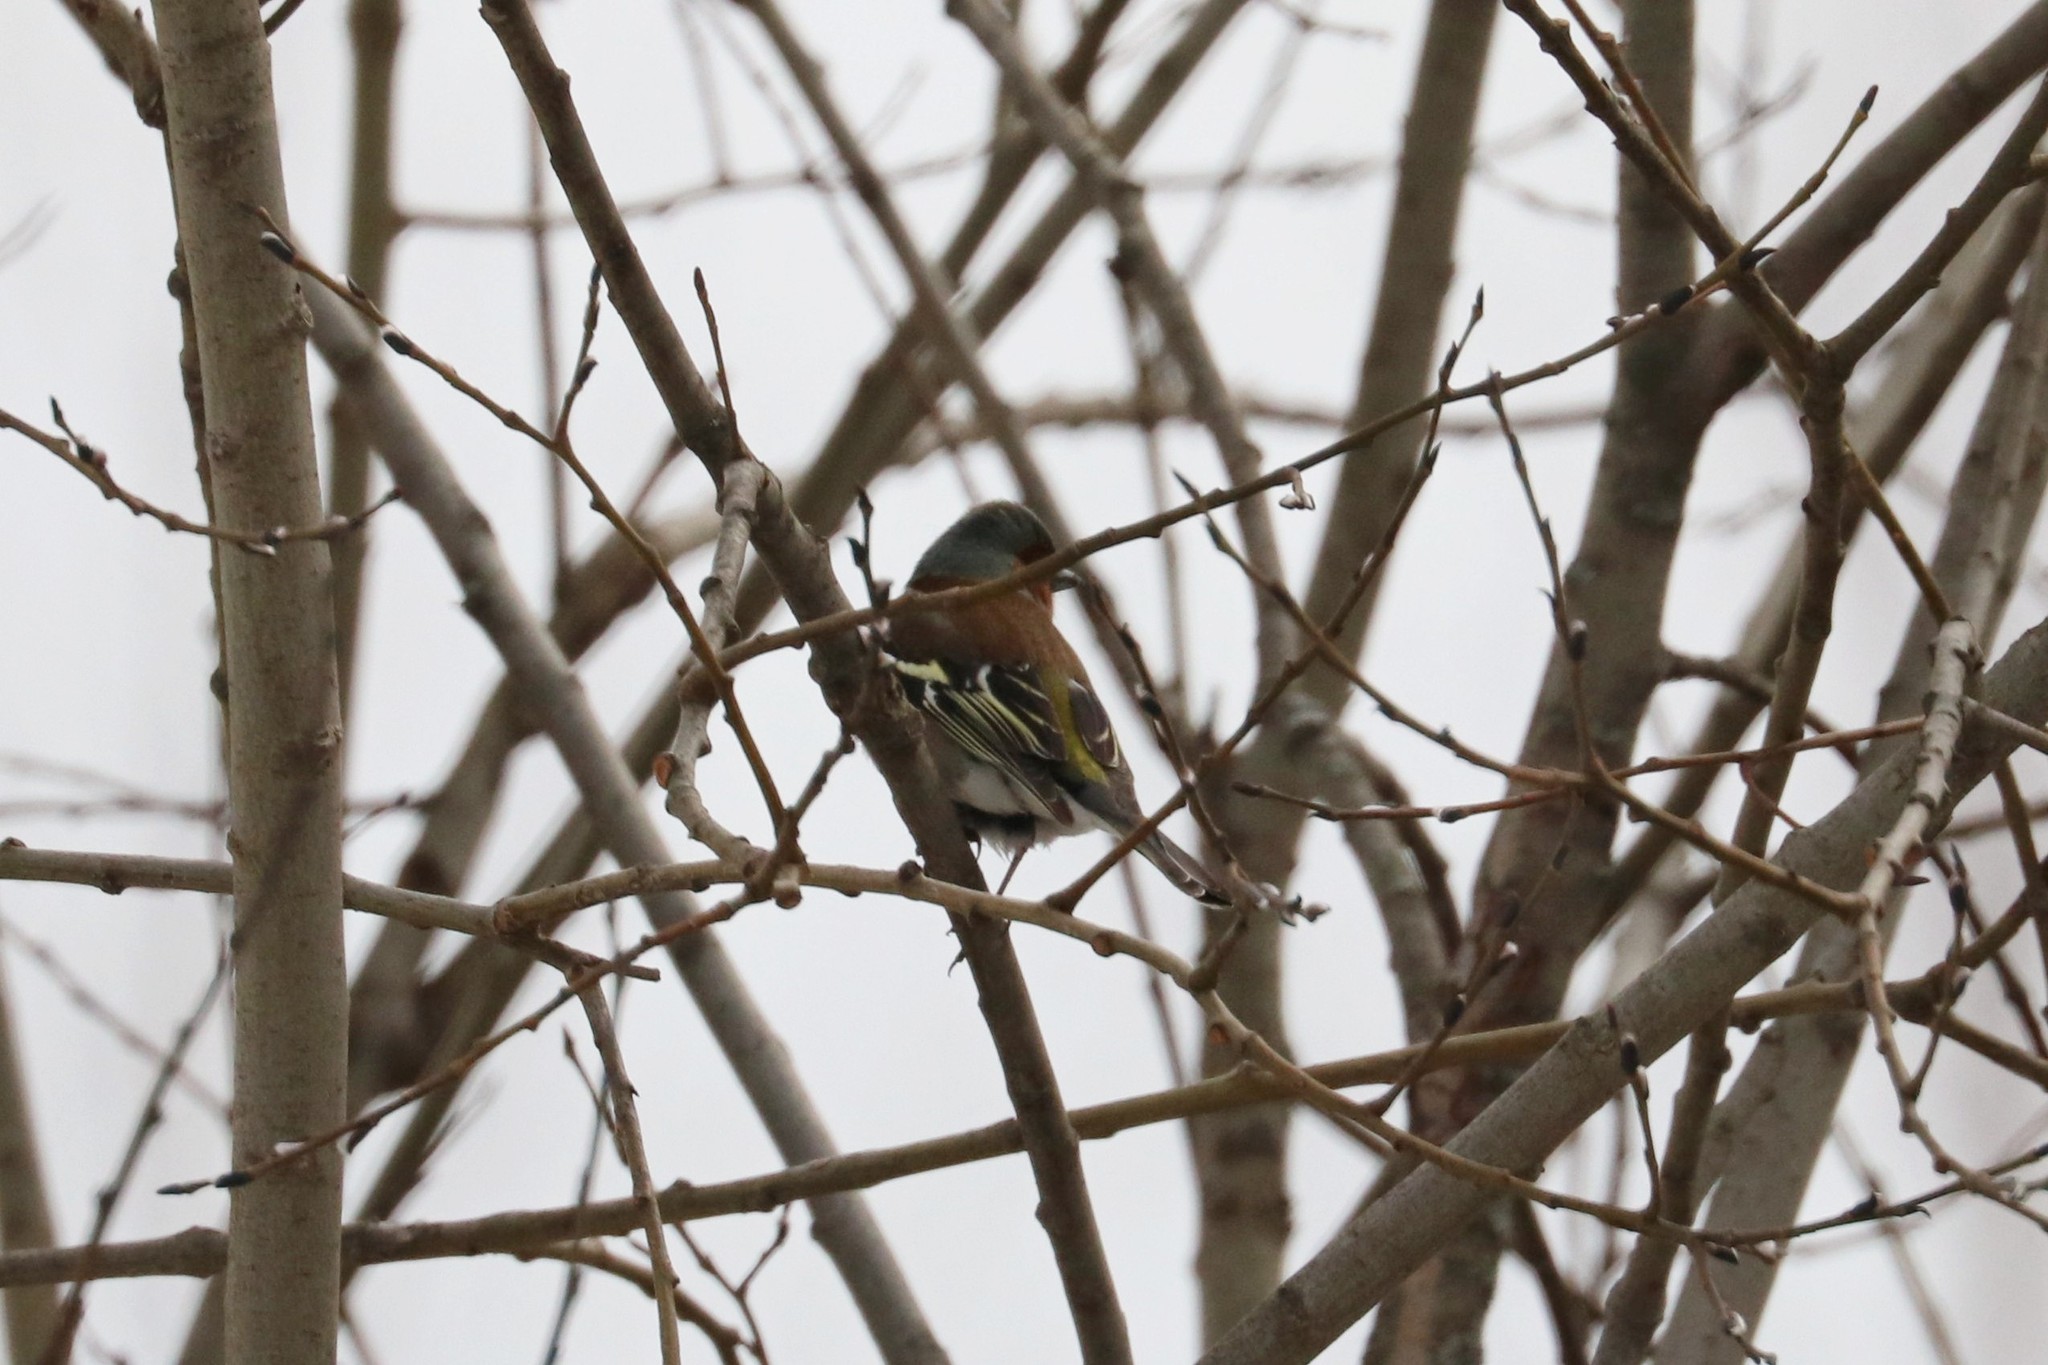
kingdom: Animalia
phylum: Chordata
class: Aves
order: Passeriformes
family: Fringillidae
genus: Fringilla
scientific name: Fringilla coelebs
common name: Common chaffinch
